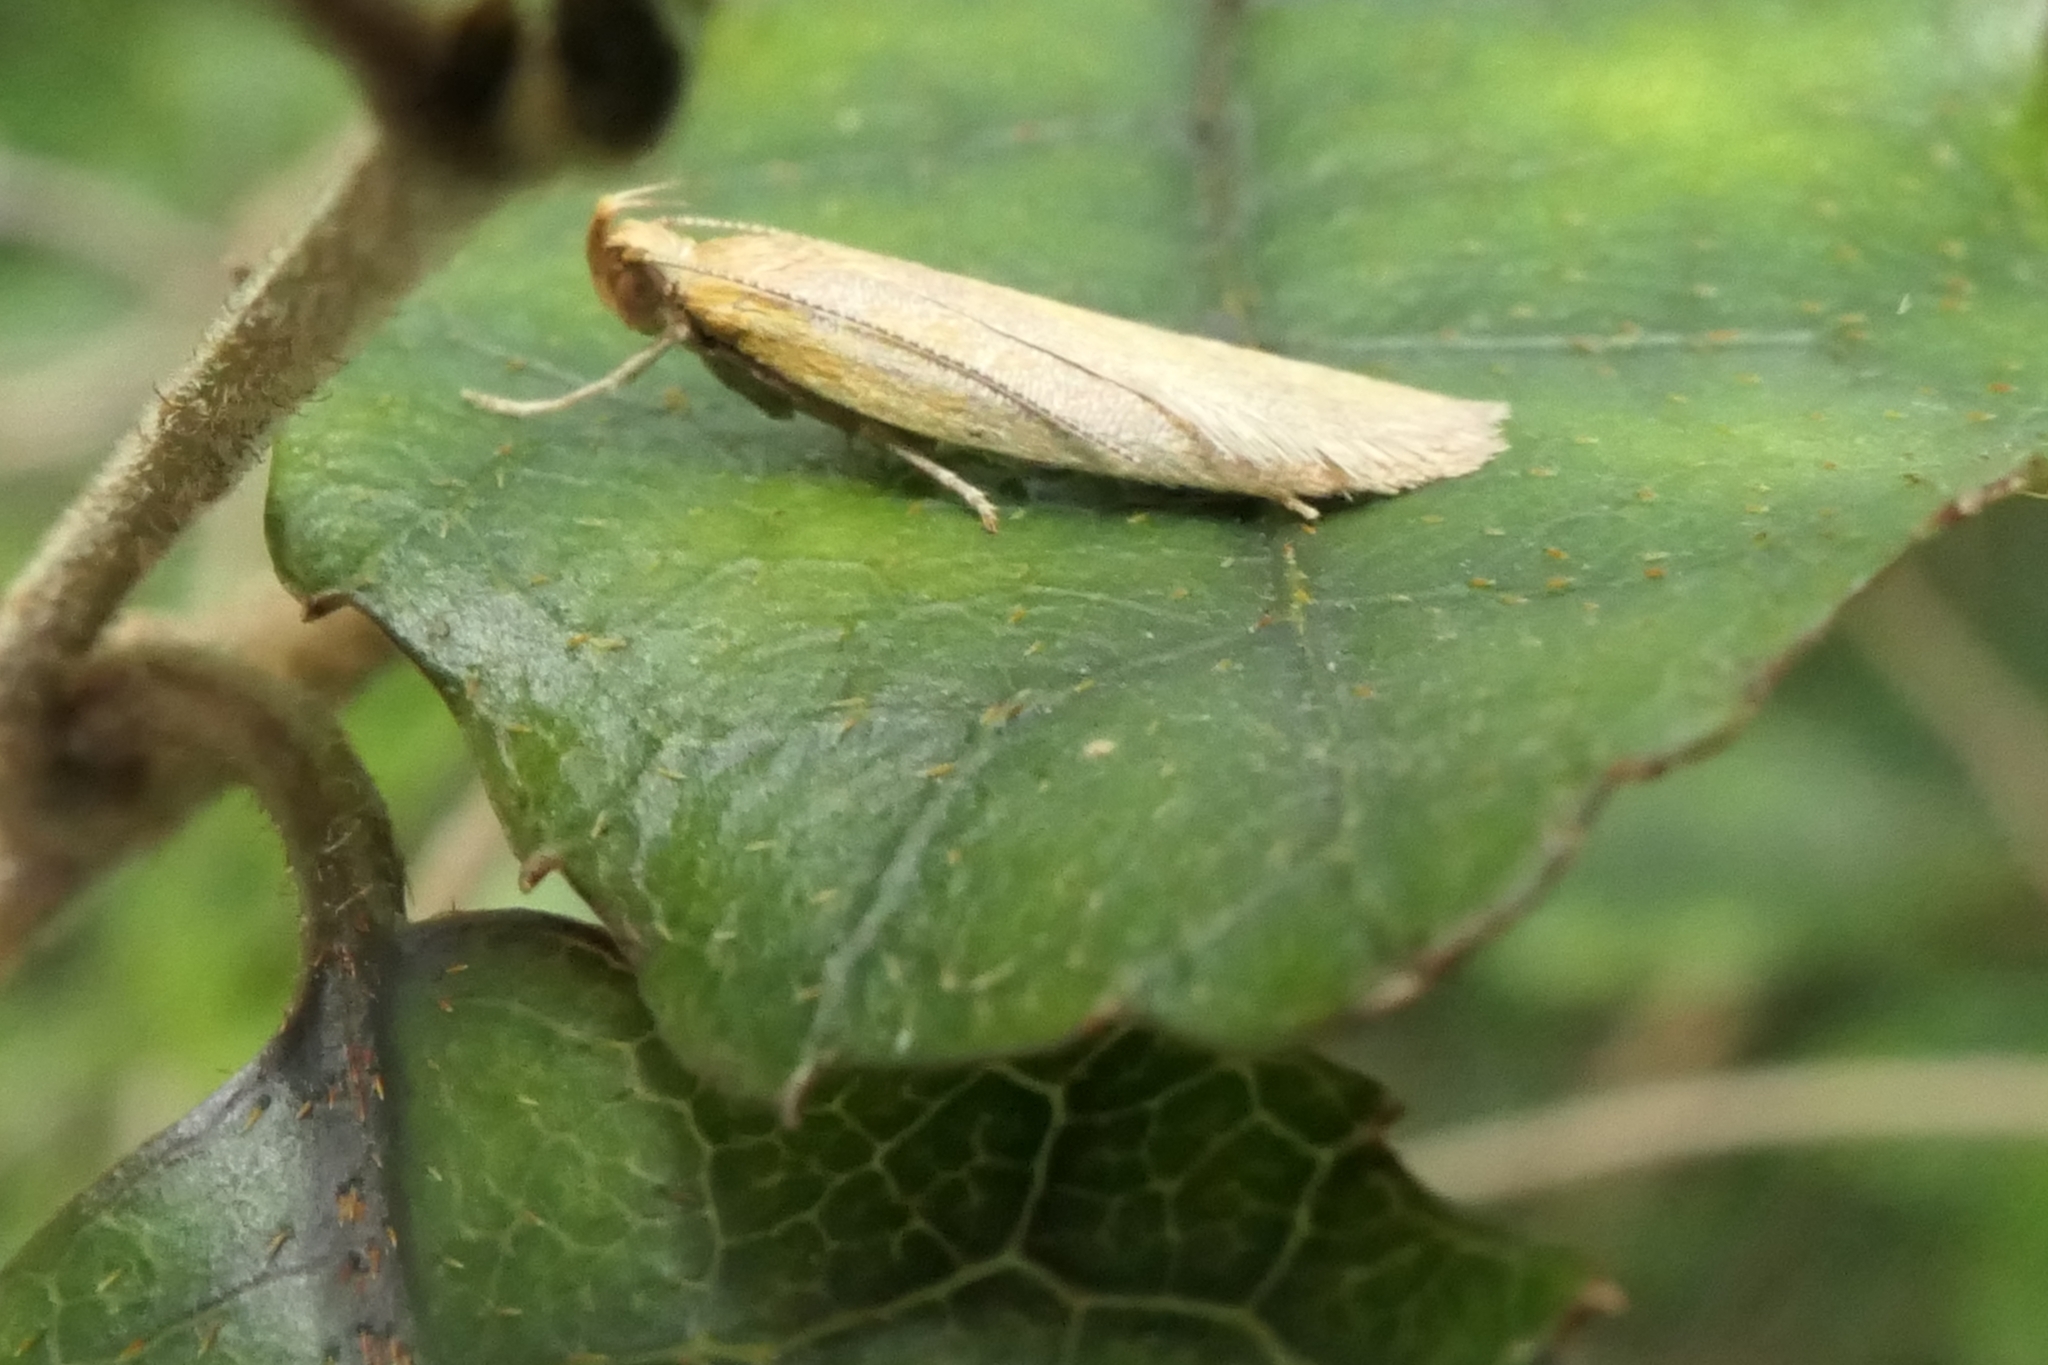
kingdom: Animalia
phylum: Arthropoda
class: Insecta
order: Lepidoptera
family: Oecophoridae
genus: Gymnobathra
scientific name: Gymnobathra parca
